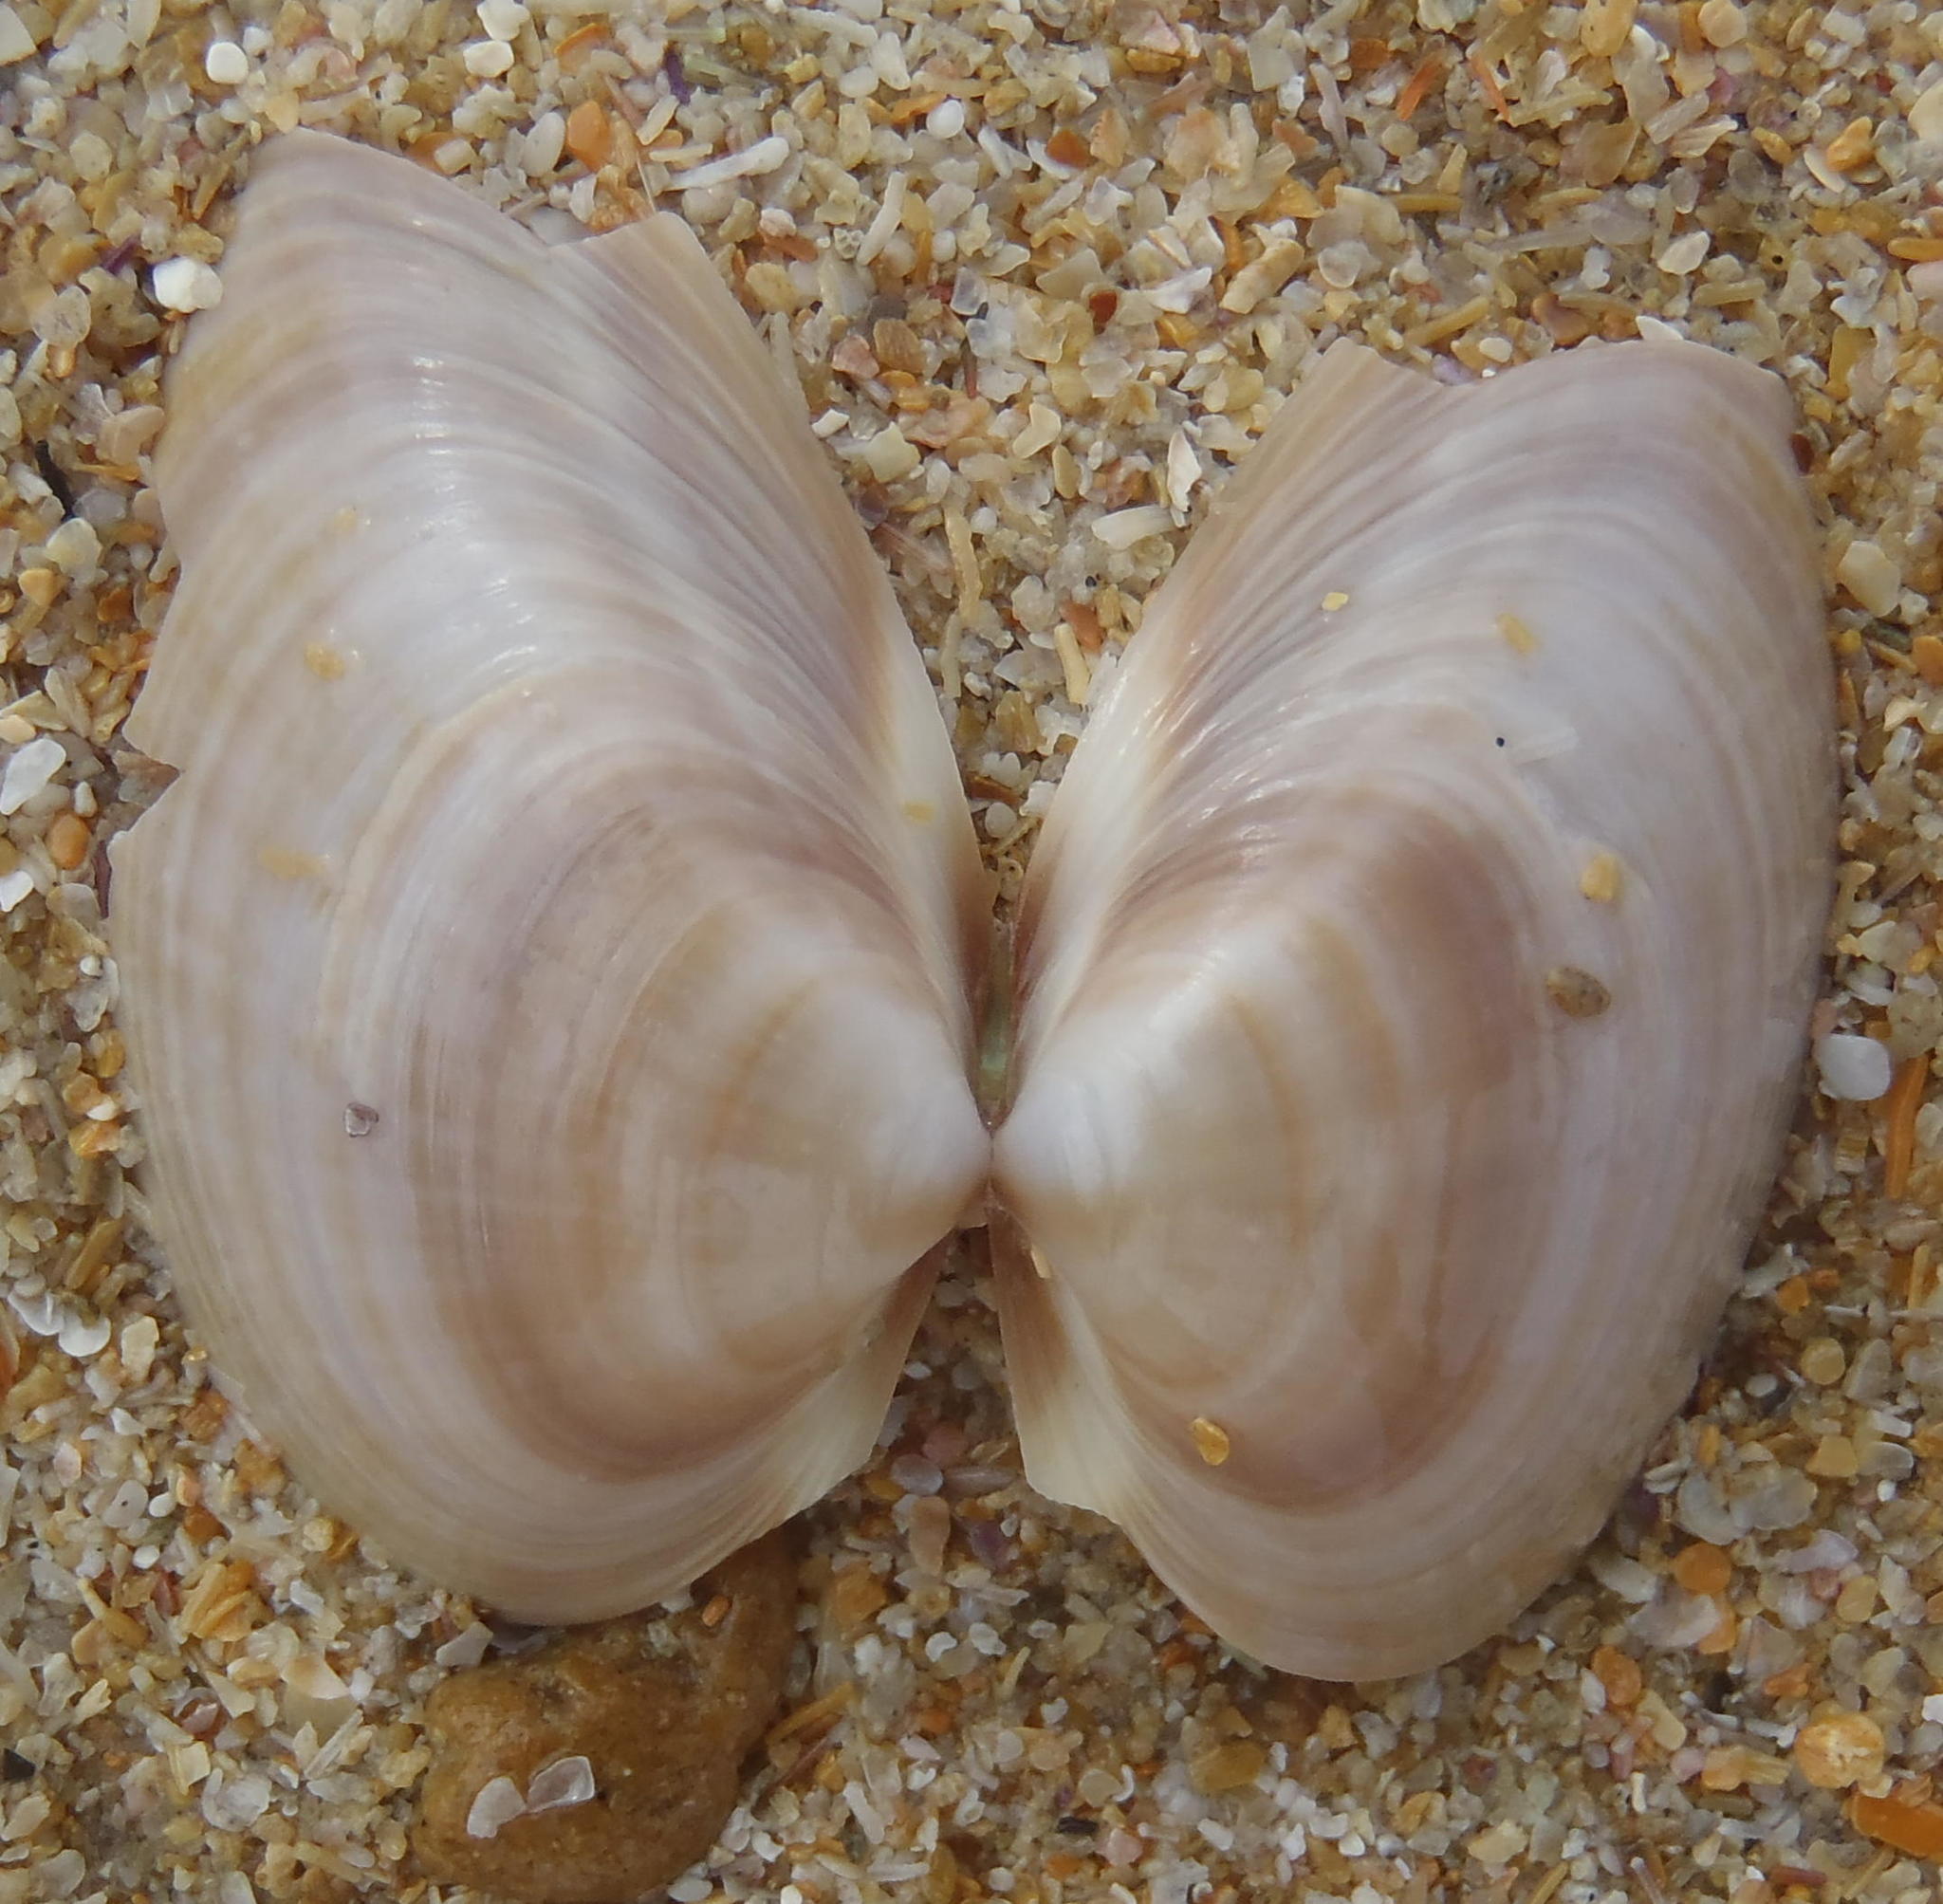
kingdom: Animalia
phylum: Mollusca
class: Bivalvia
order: Venerida
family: Mactridae
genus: Mactra
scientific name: Mactra glabrata
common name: Smooth mactra
